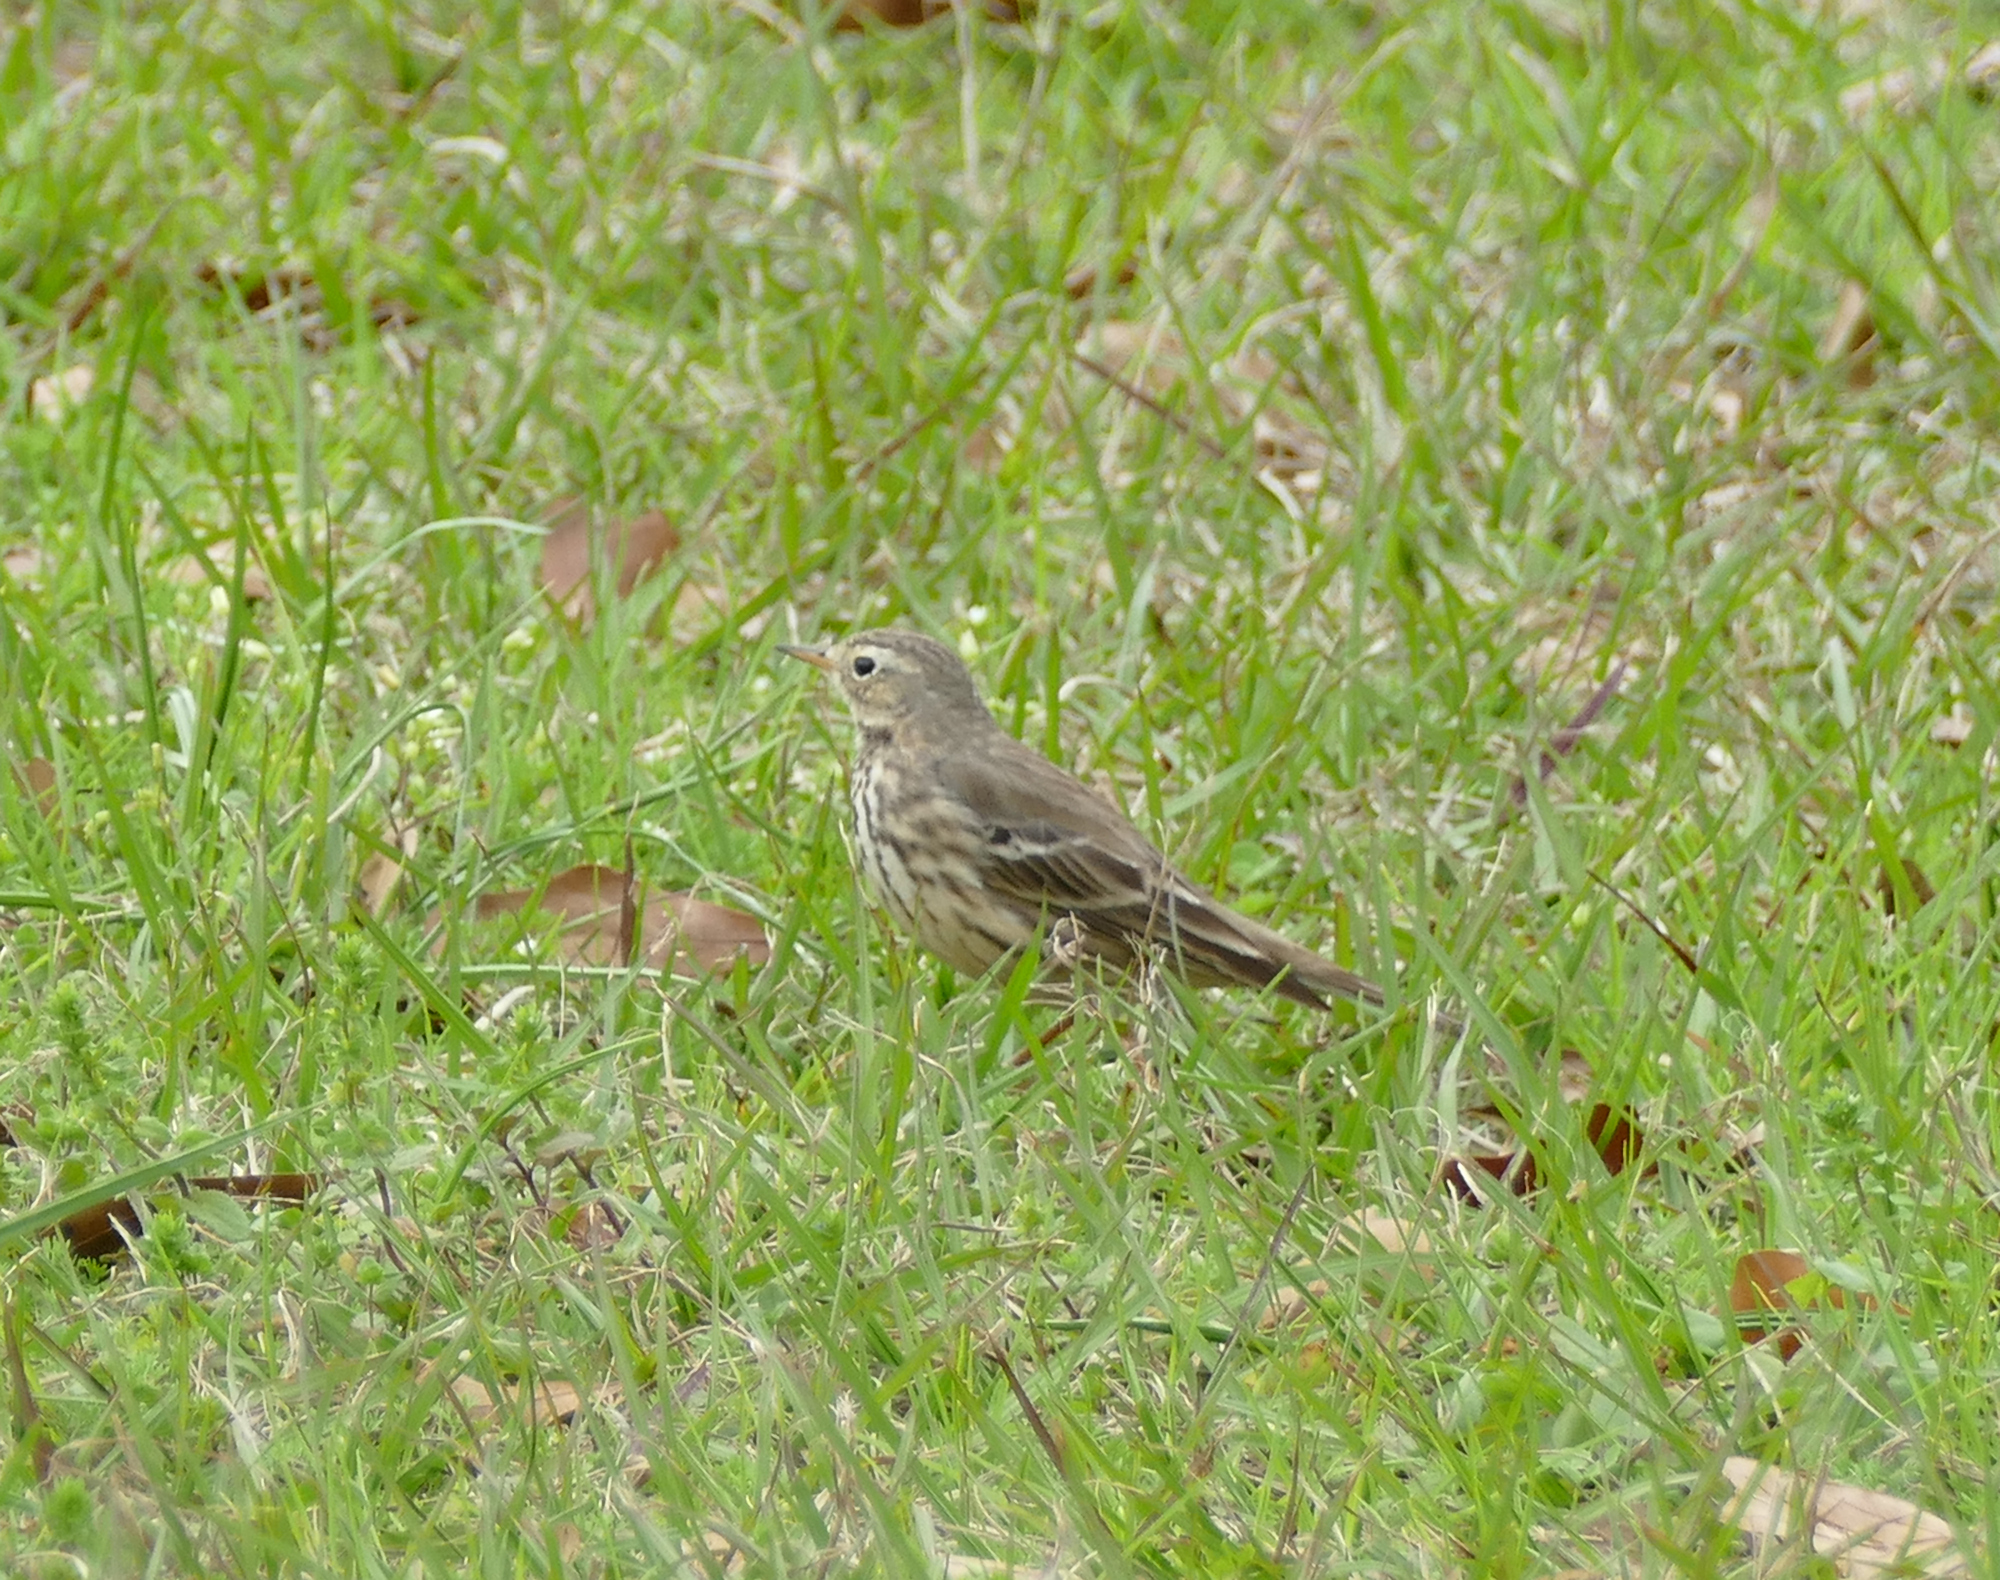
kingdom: Animalia
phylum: Chordata
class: Aves
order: Passeriformes
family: Motacillidae
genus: Anthus
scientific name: Anthus rubescens
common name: Buff-bellied pipit
